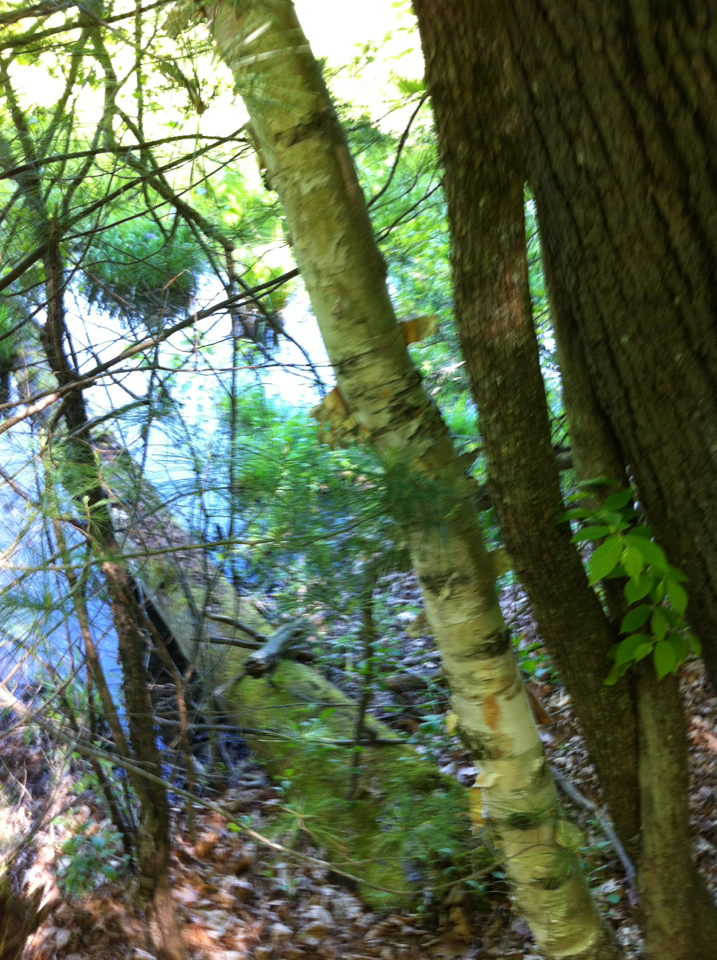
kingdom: Plantae
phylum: Tracheophyta
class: Magnoliopsida
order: Fagales
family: Betulaceae
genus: Betula
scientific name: Betula papyrifera
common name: Paper birch
